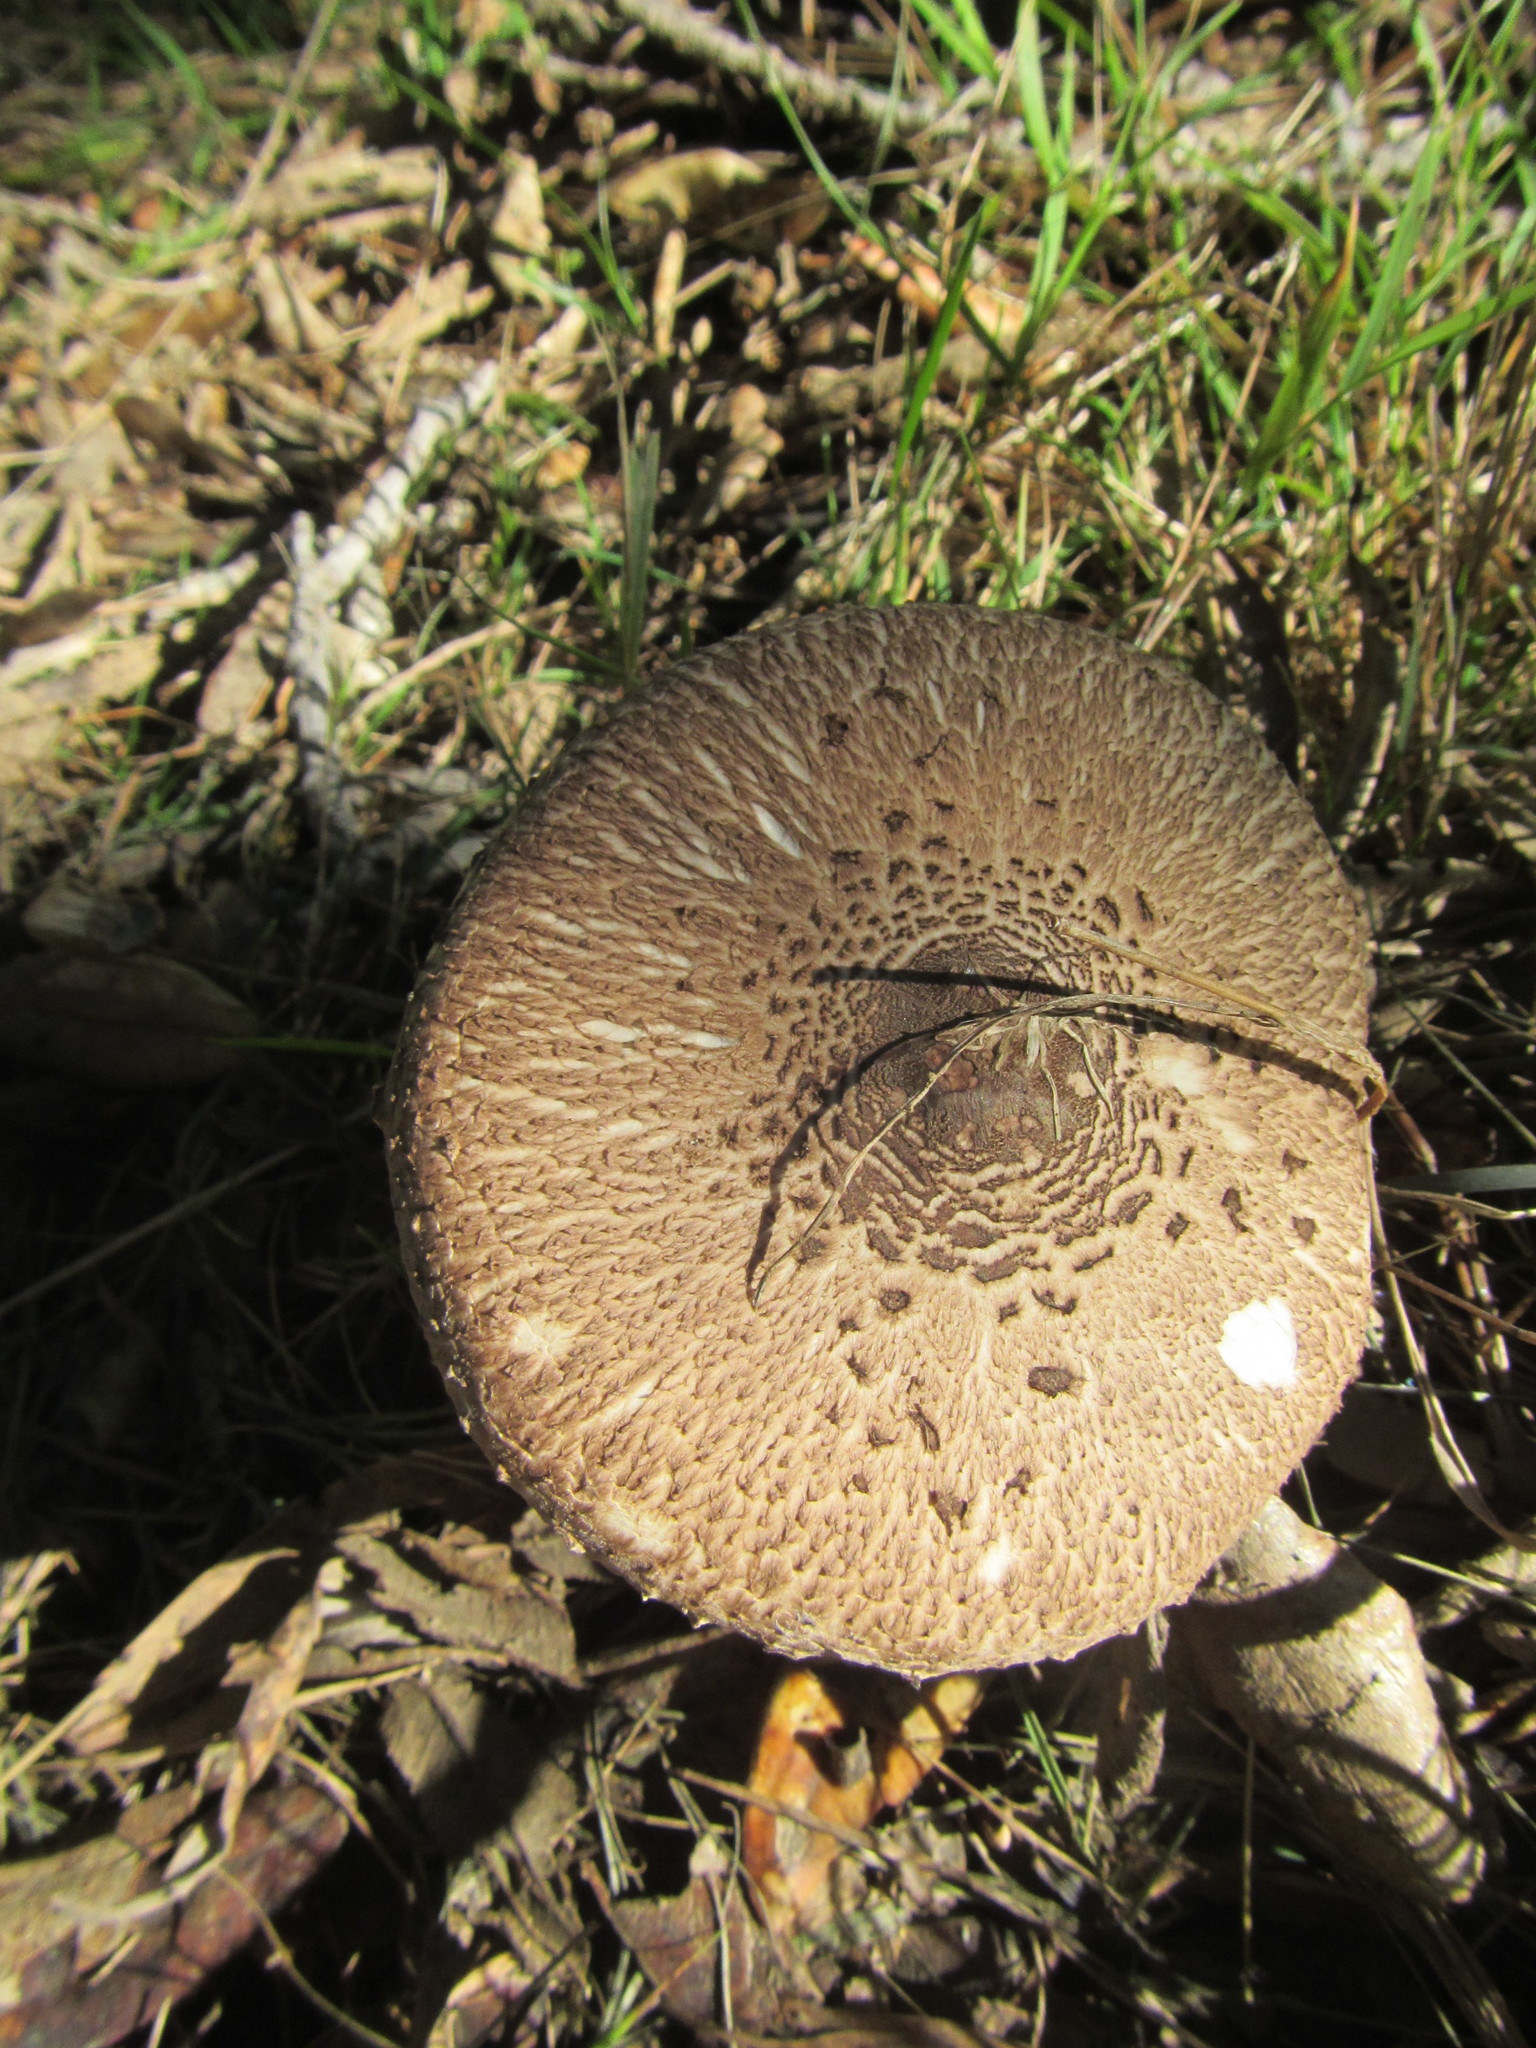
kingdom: Fungi
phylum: Basidiomycota
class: Agaricomycetes
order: Agaricales
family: Agaricaceae
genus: Macrolepiota
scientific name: Macrolepiota clelandii
